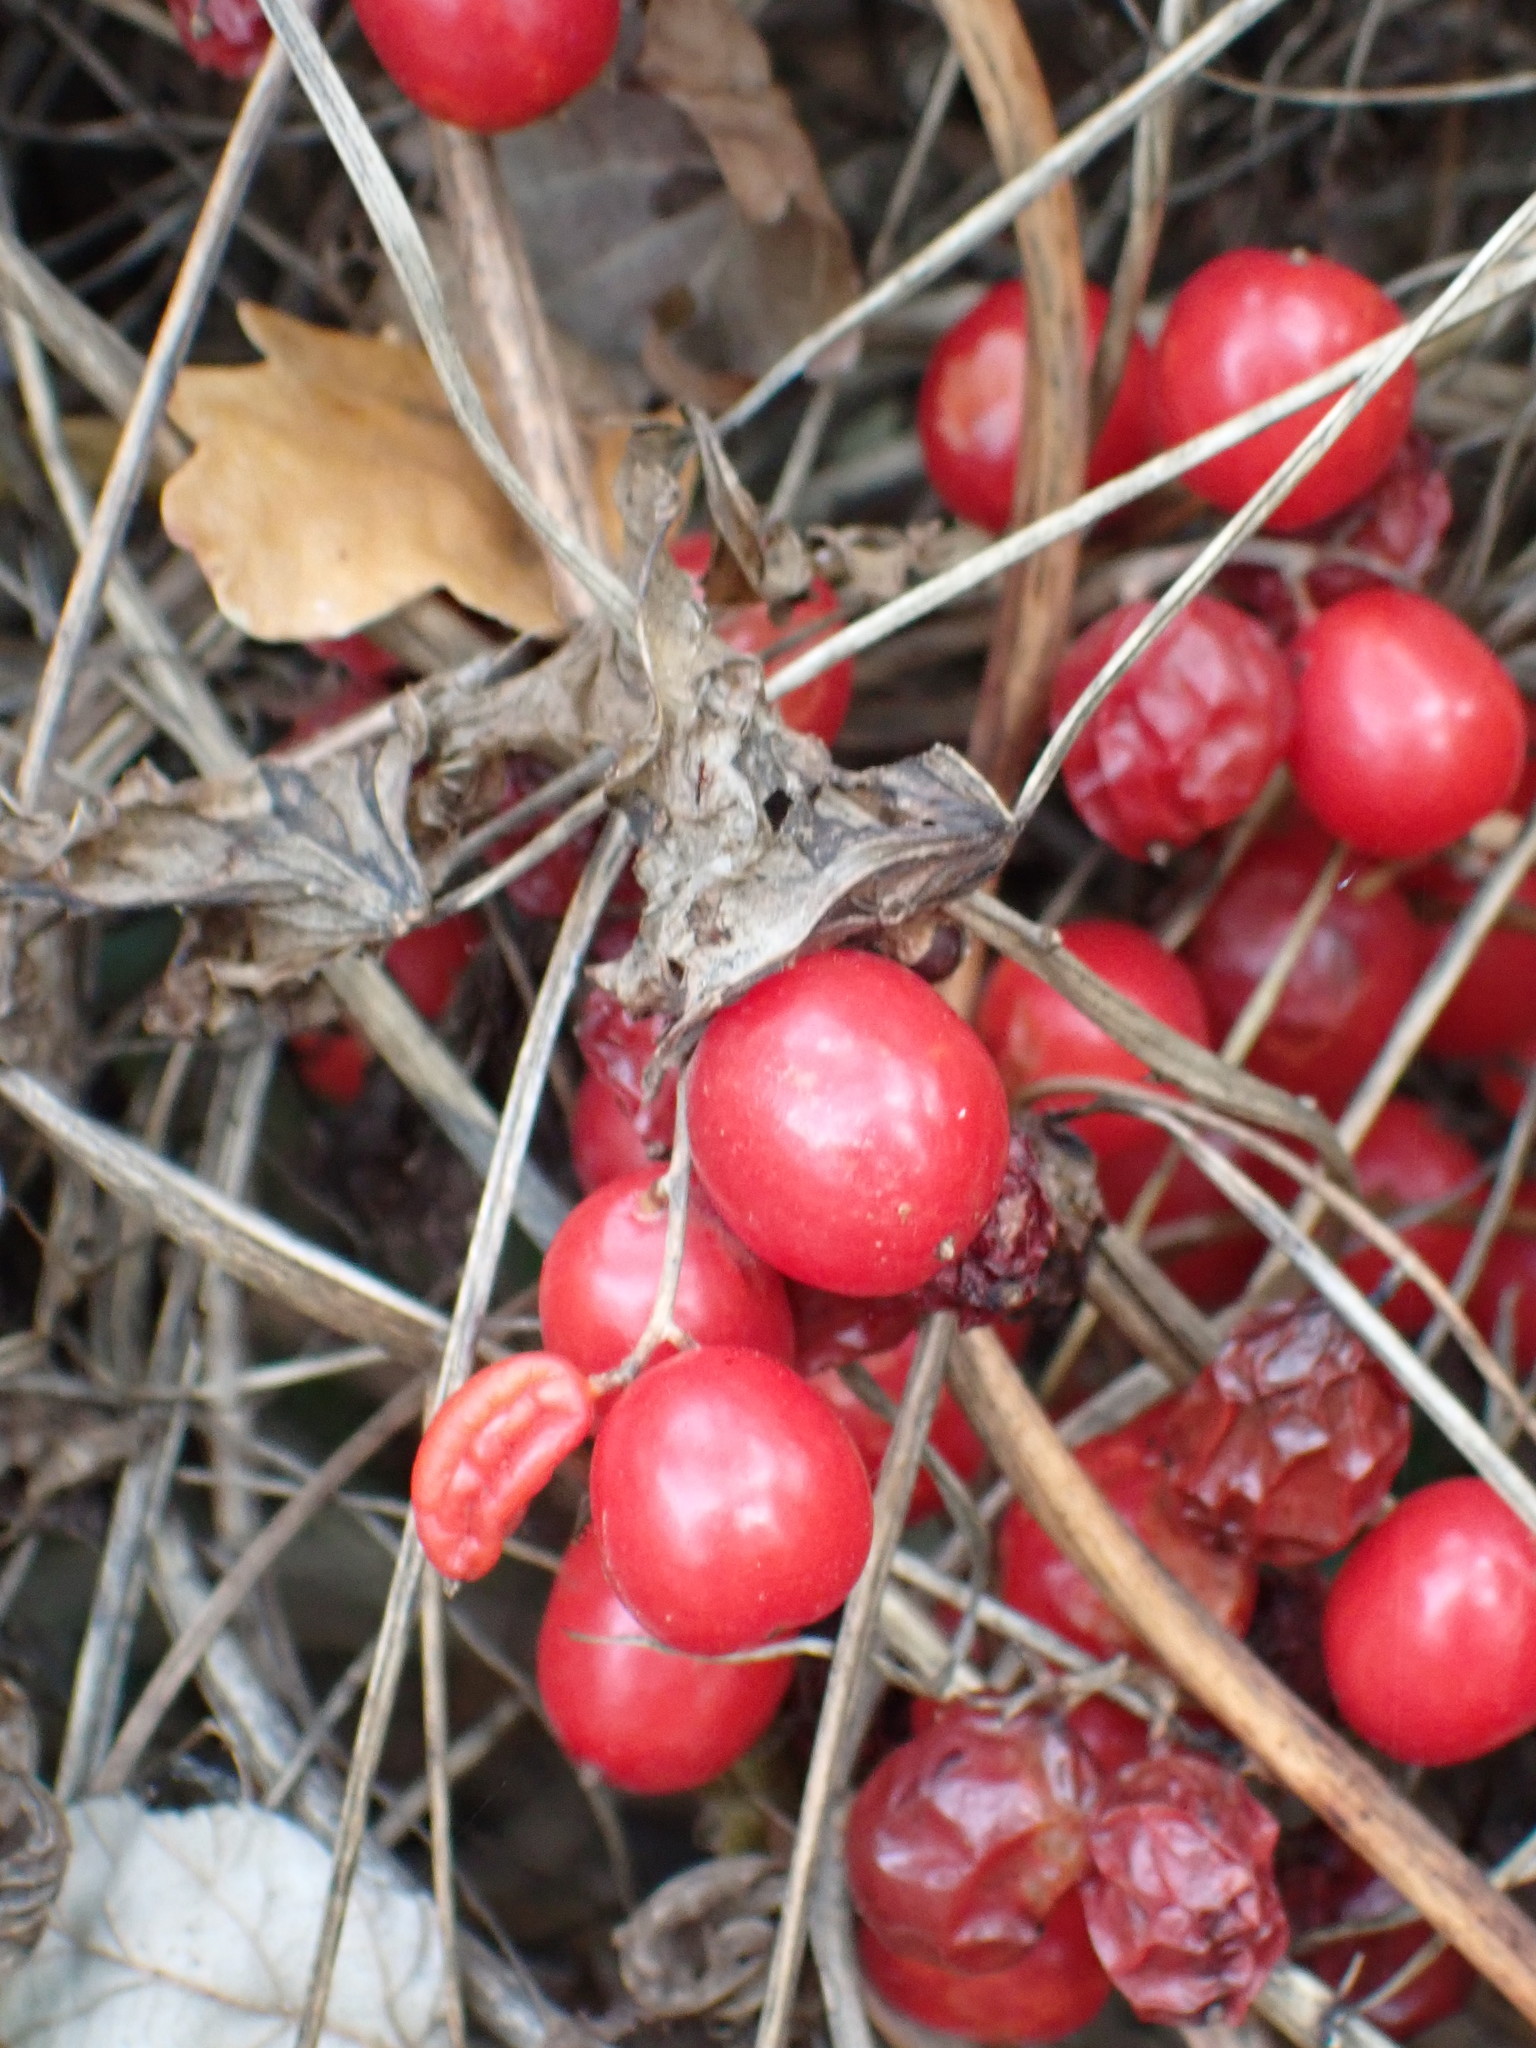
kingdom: Plantae
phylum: Tracheophyta
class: Liliopsida
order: Dioscoreales
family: Dioscoreaceae
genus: Dioscorea
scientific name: Dioscorea communis
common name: Black-bindweed
